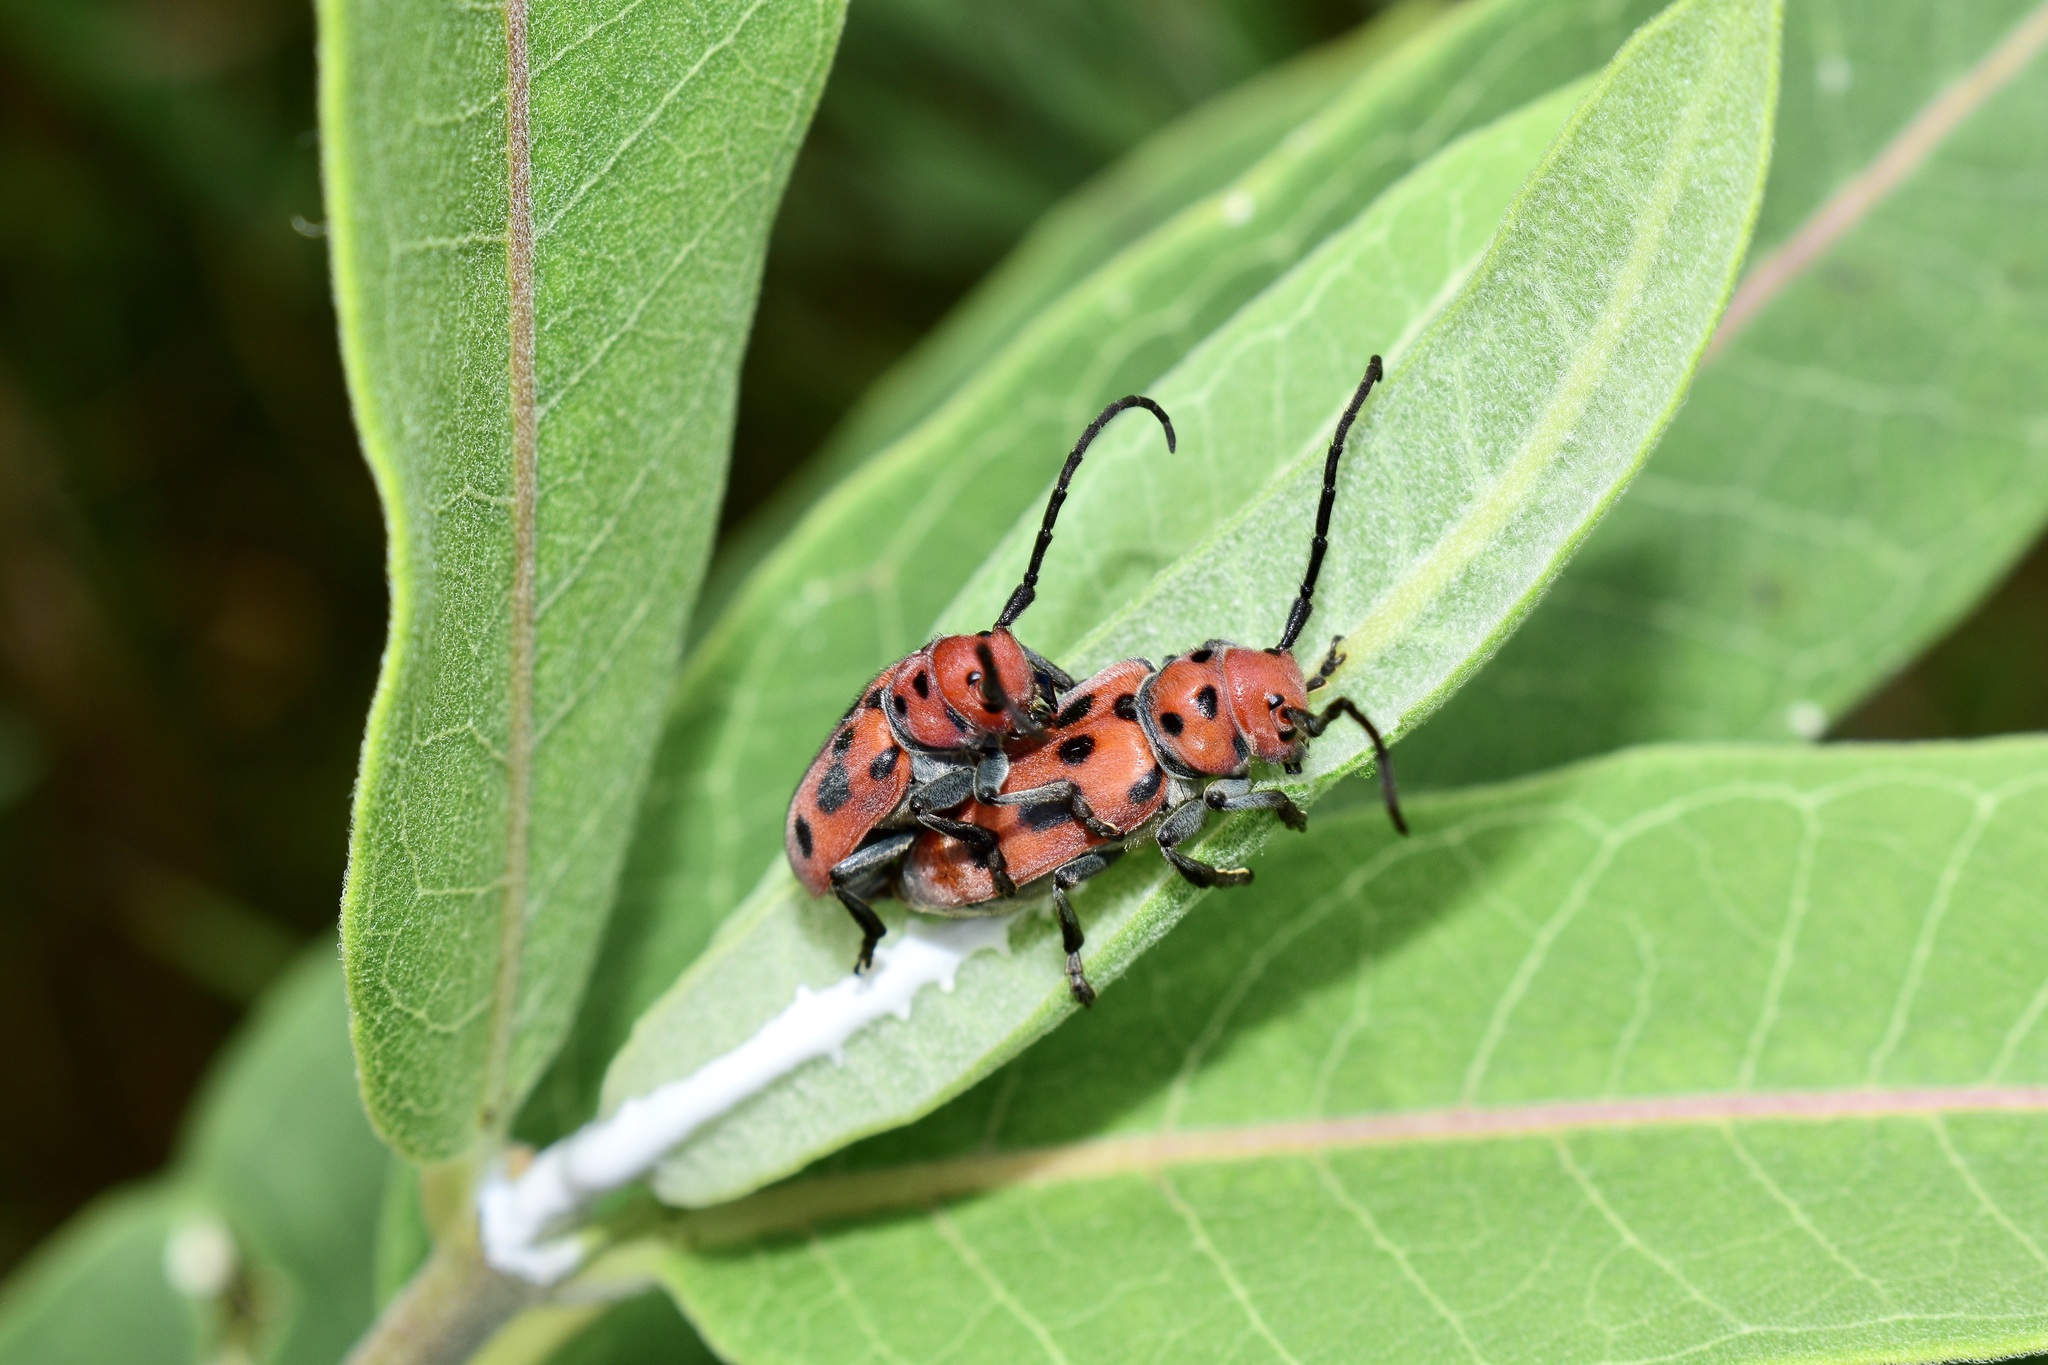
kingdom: Animalia
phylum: Arthropoda
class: Insecta
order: Coleoptera
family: Cerambycidae
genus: Tetraopes
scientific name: Tetraopes tetrophthalmus
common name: Red milkweed beetle
